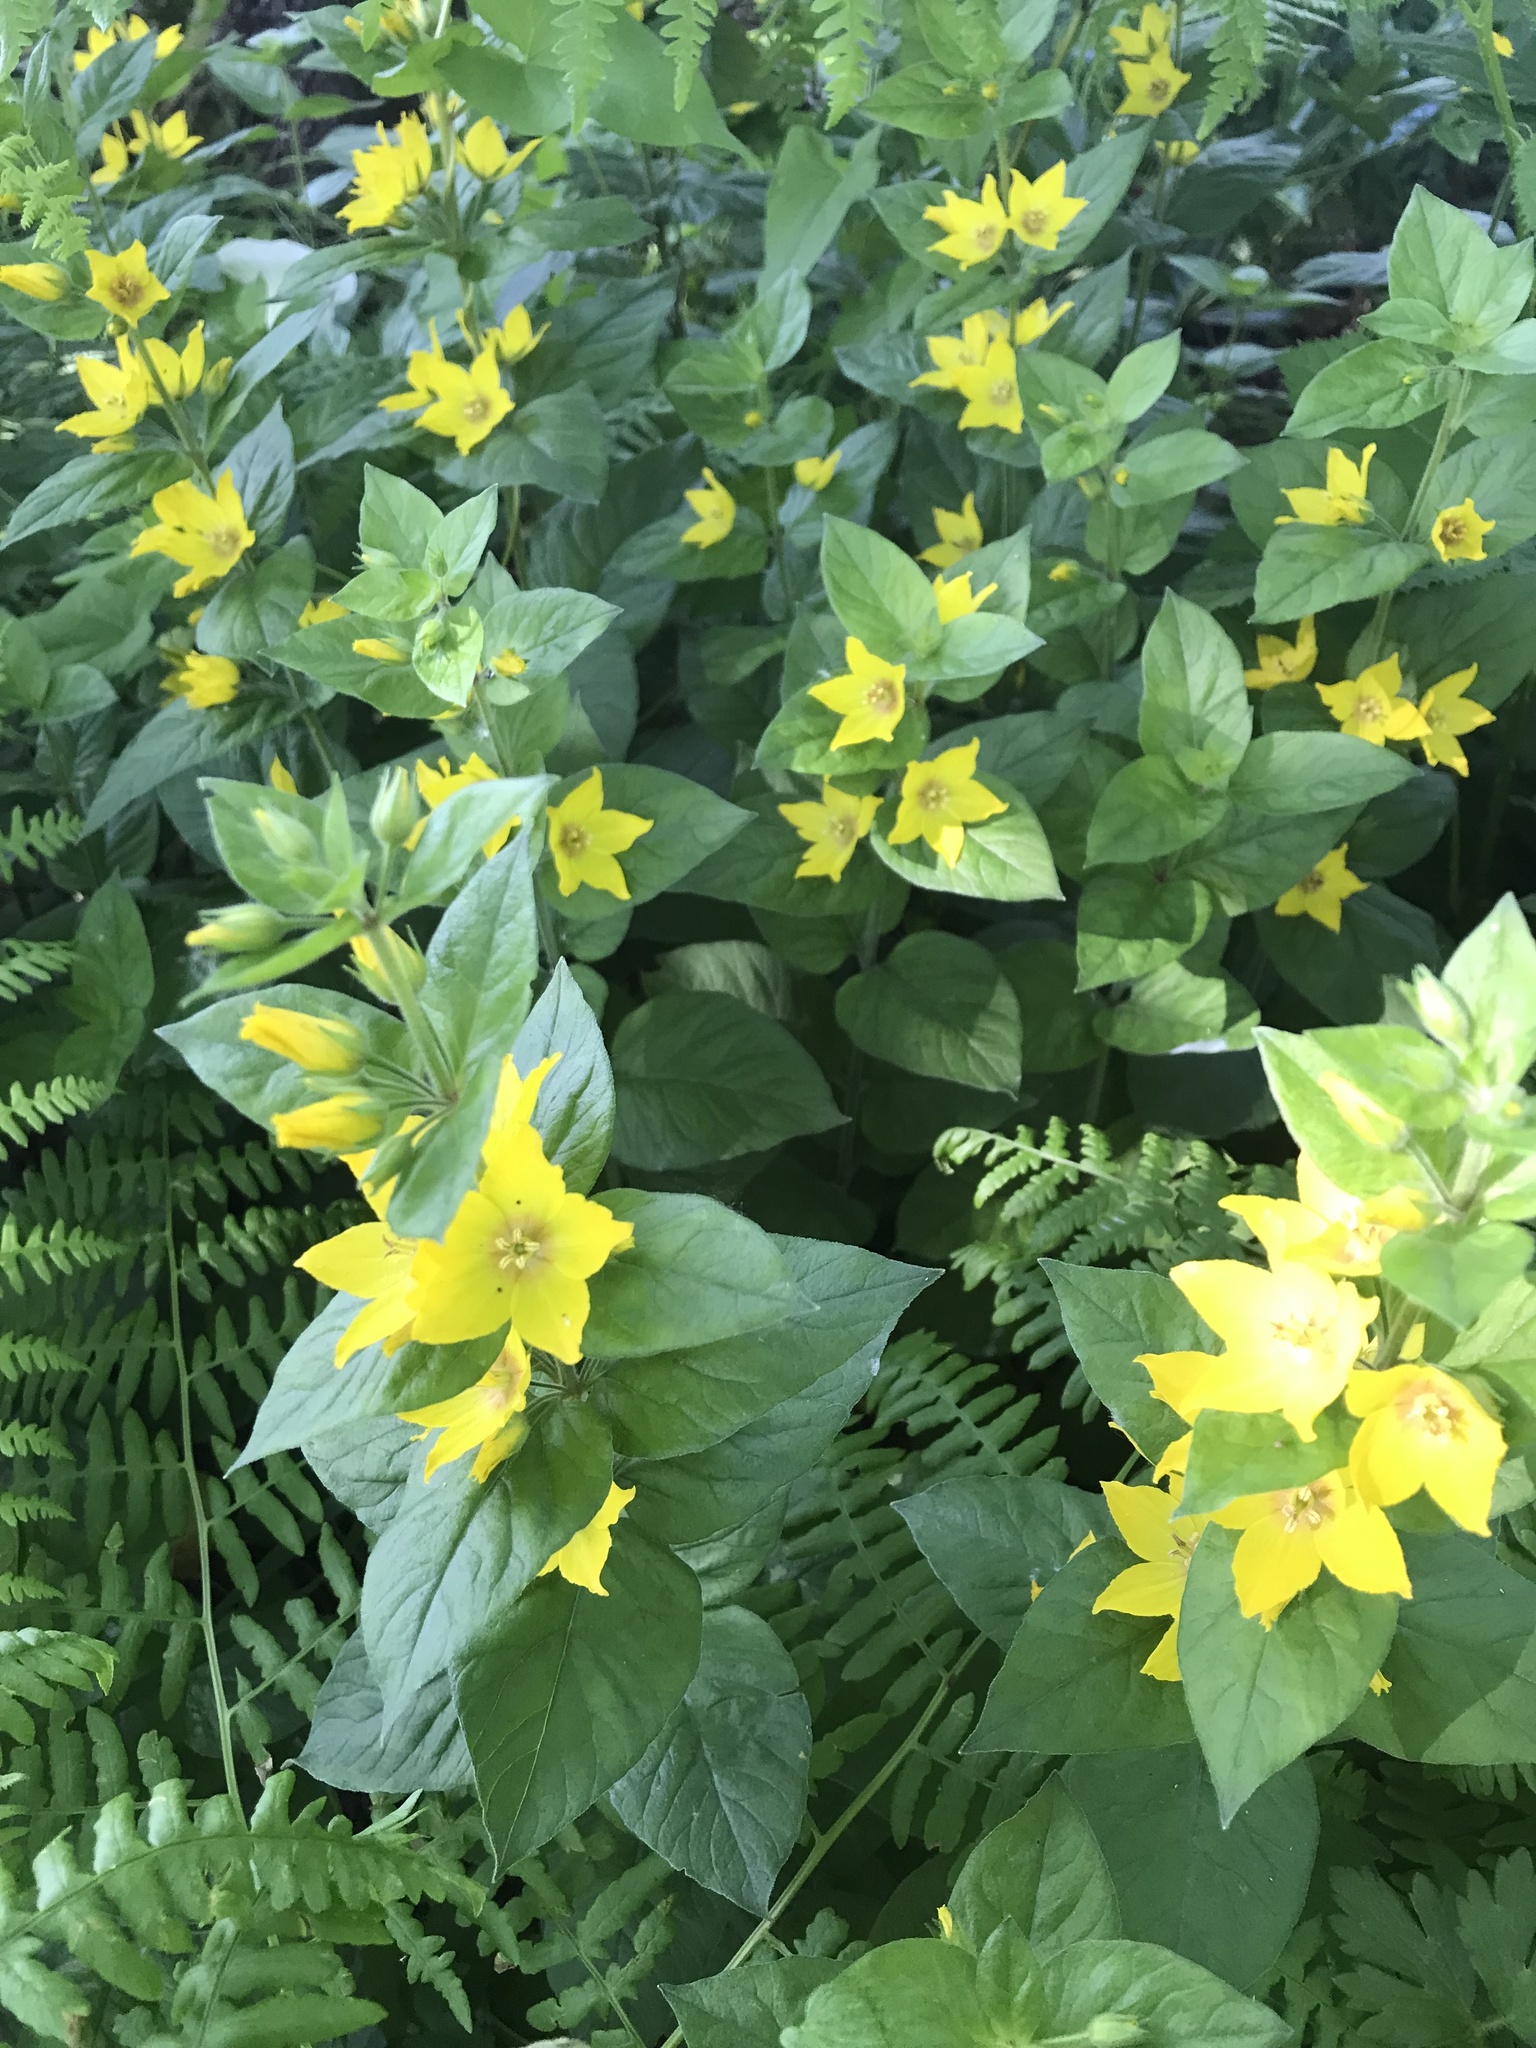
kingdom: Plantae
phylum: Tracheophyta
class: Magnoliopsida
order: Ericales
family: Primulaceae
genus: Lysimachia
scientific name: Lysimachia punctata
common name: Dotted loosestrife
